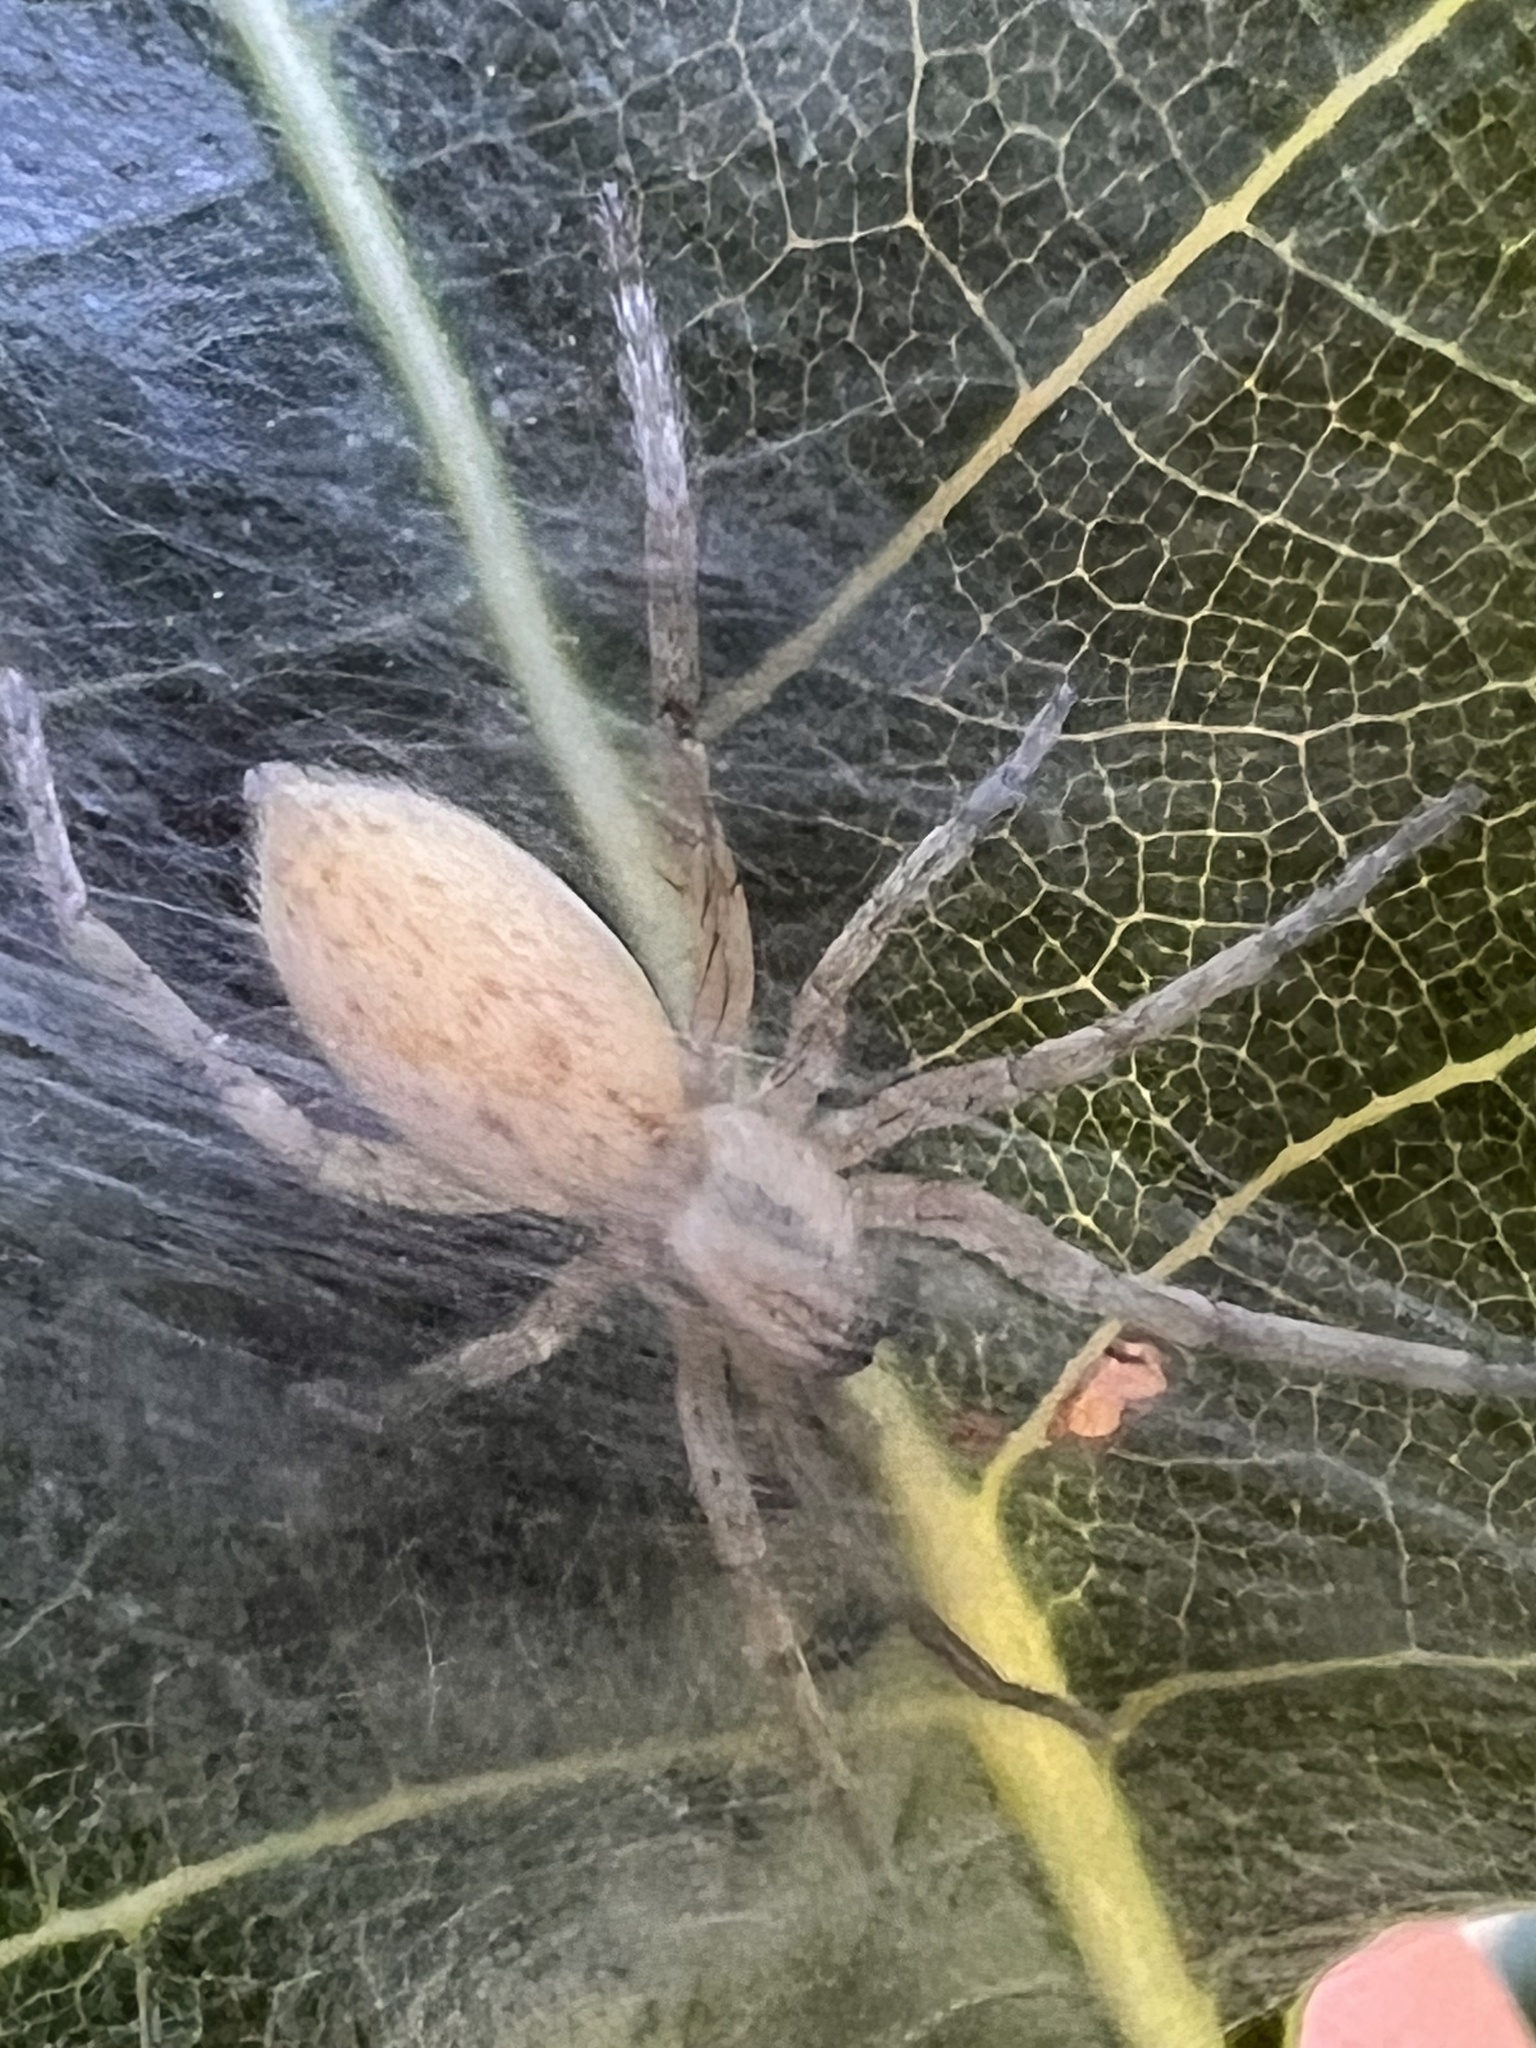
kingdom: Animalia
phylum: Arthropoda
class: Arachnida
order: Araneae
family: Anyphaenidae
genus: Hibana
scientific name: Hibana gracilis
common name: Garden ghost spider
